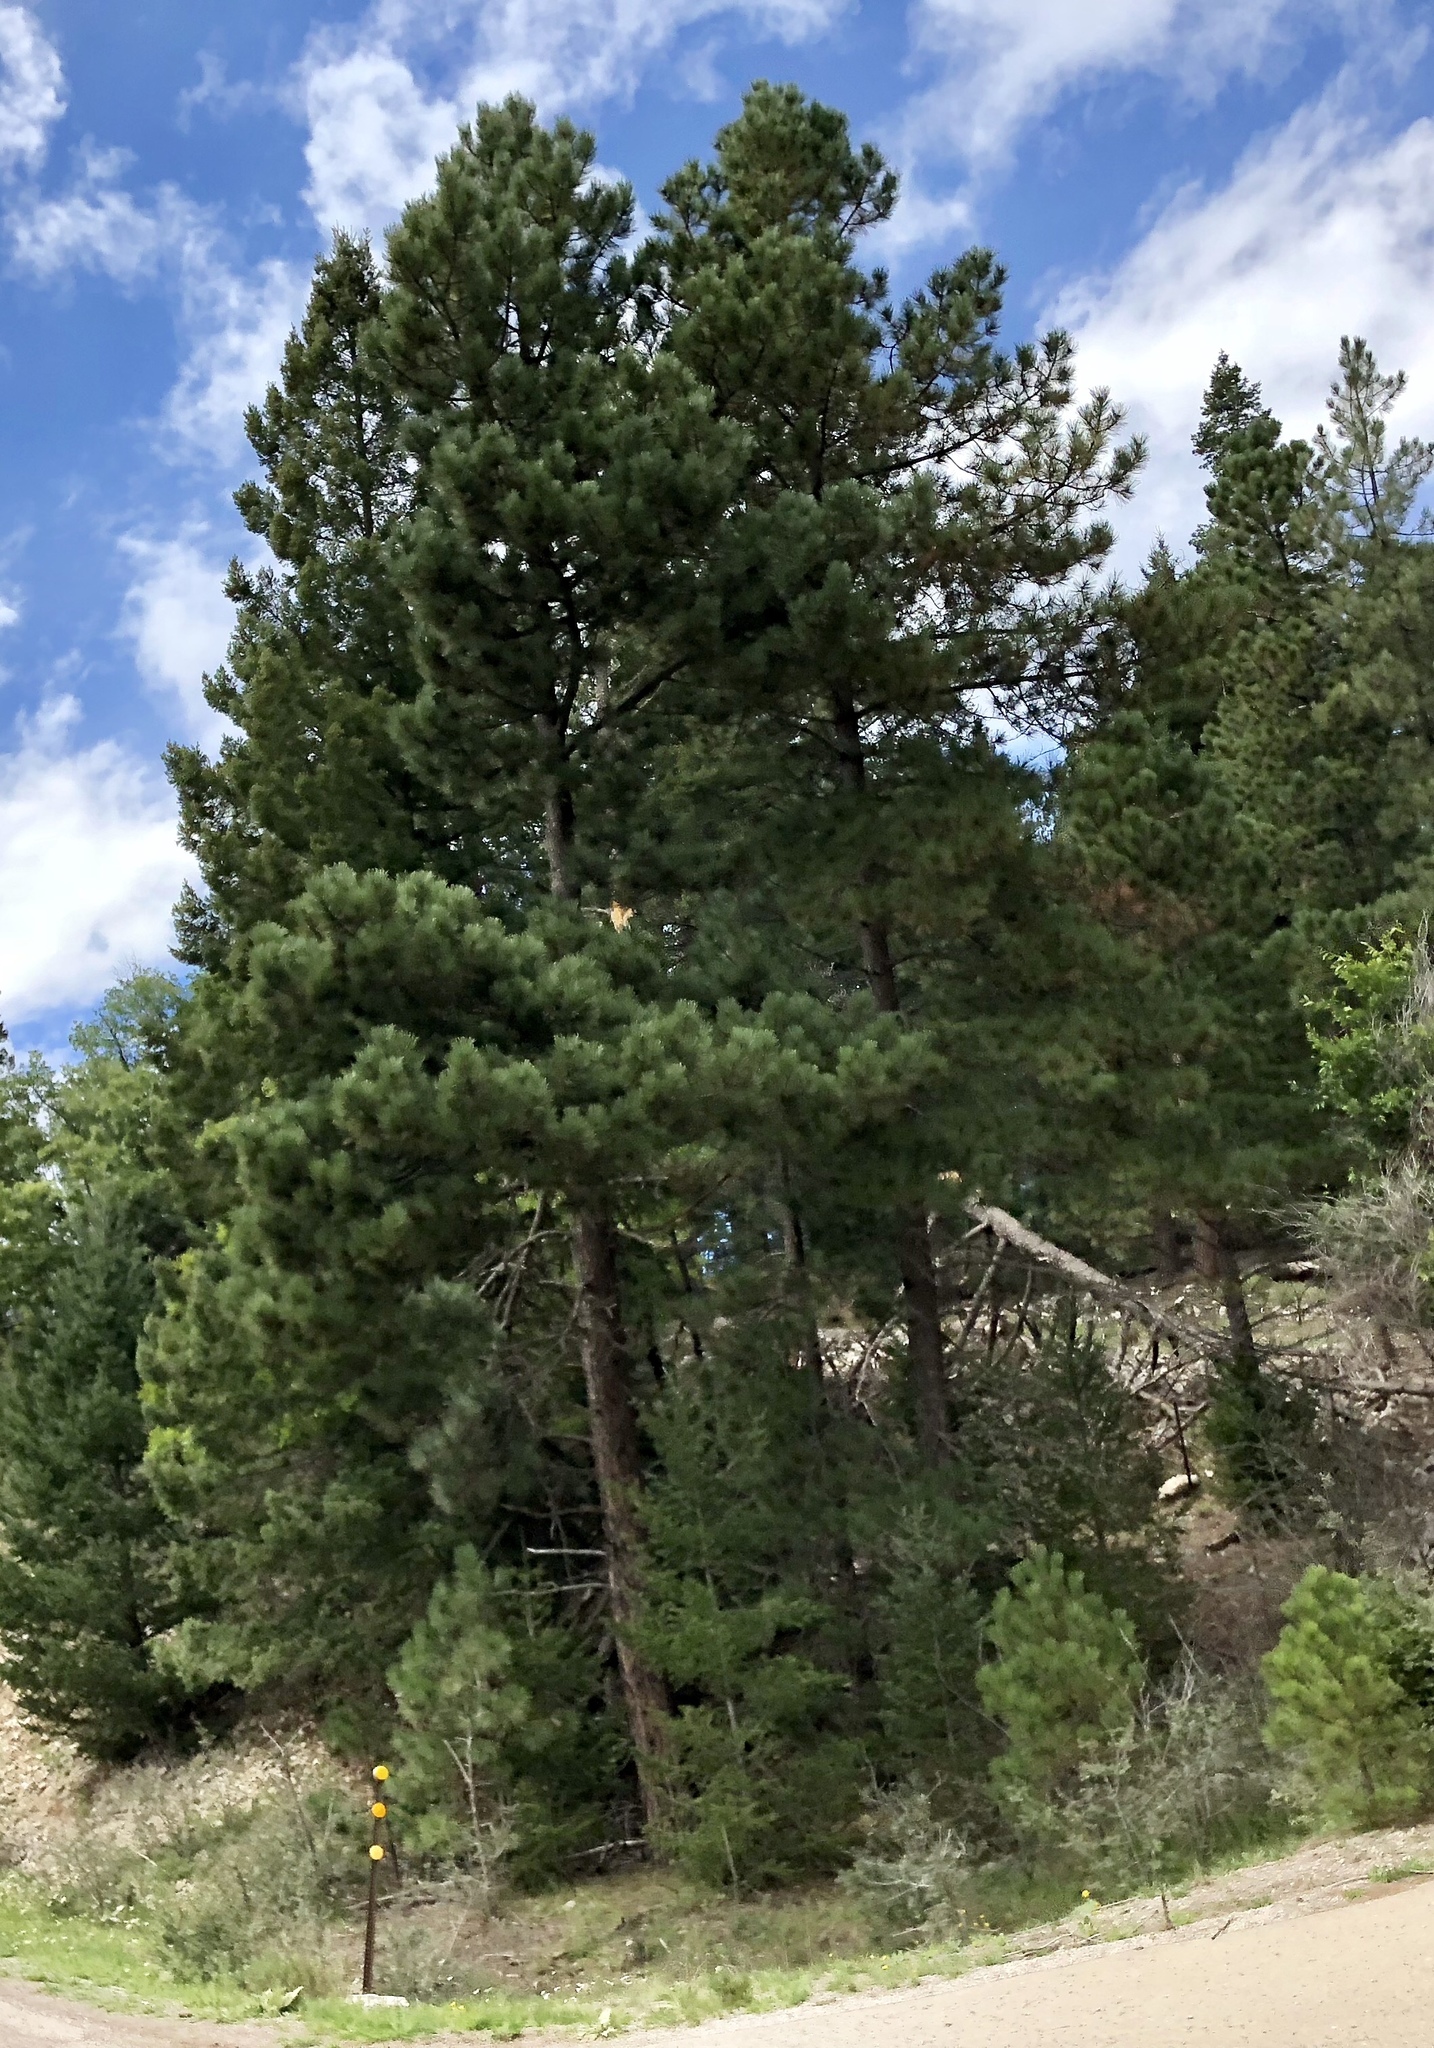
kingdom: Plantae
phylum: Tracheophyta
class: Pinopsida
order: Pinales
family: Pinaceae
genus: Pinus
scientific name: Pinus ponderosa
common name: Western yellow-pine
